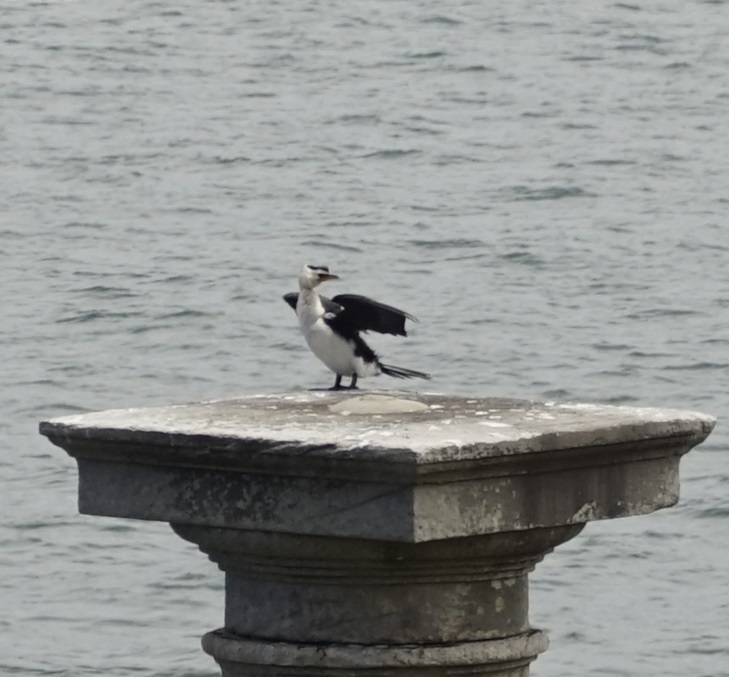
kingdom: Animalia
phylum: Chordata
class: Aves
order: Suliformes
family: Phalacrocoracidae
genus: Microcarbo
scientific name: Microcarbo melanoleucos
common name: Little pied cormorant
